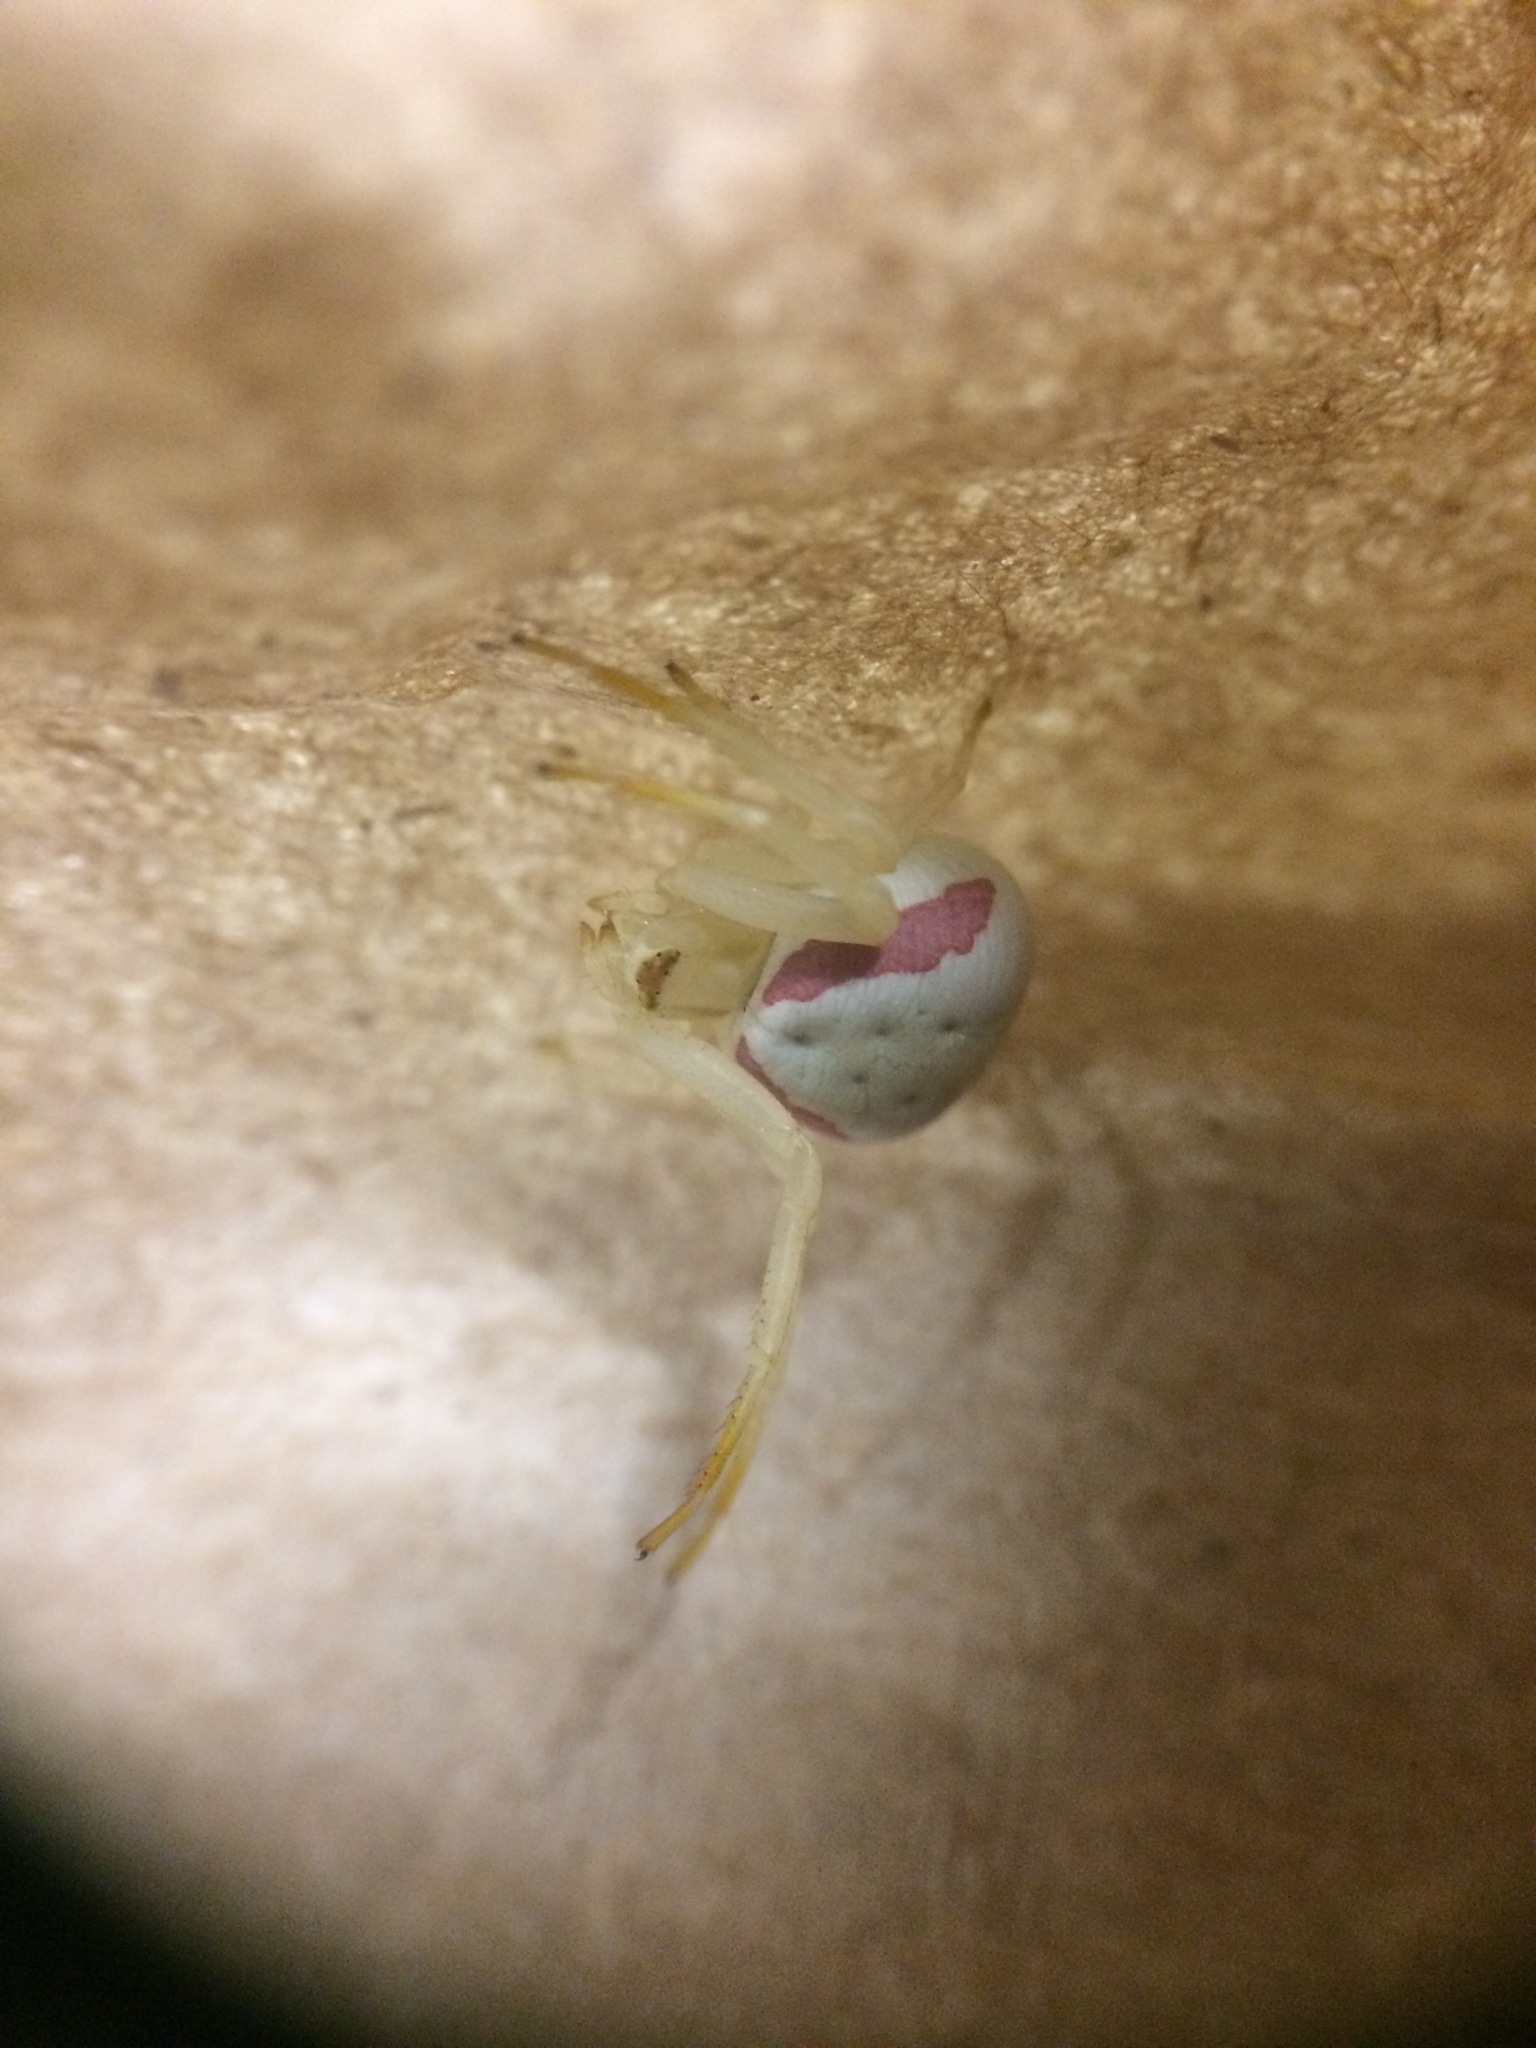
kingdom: Animalia
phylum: Arthropoda
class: Arachnida
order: Araneae
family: Thomisidae
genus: Misumena
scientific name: Misumena vatia
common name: Goldenrod crab spider
